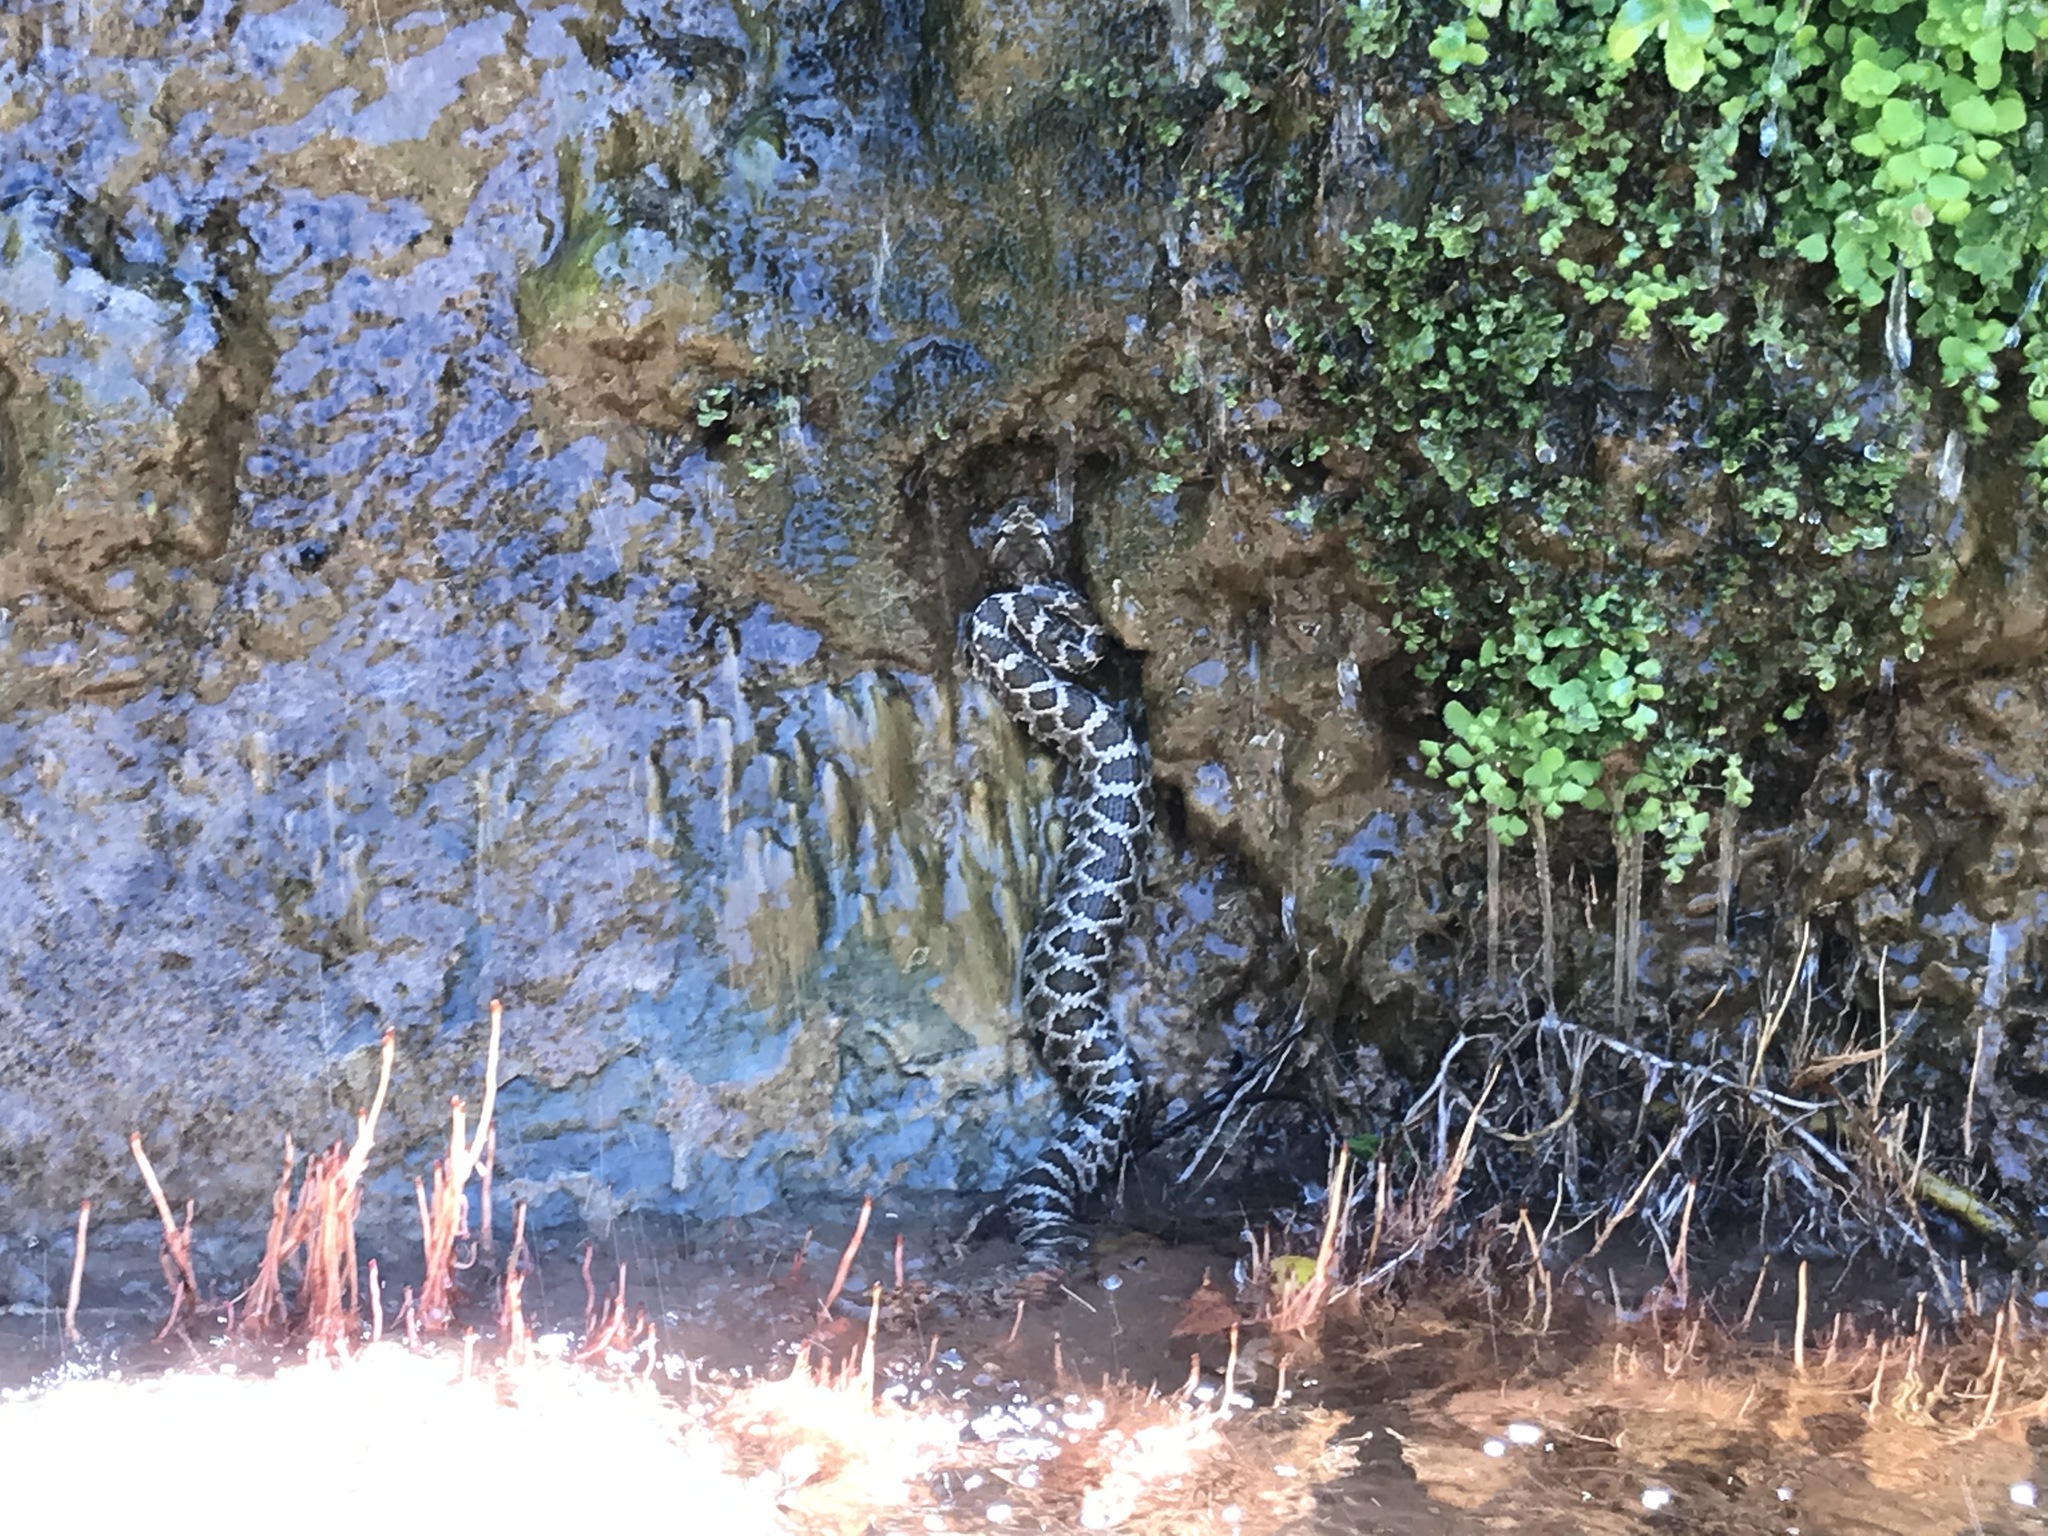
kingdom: Animalia
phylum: Chordata
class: Squamata
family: Viperidae
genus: Crotalus
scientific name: Crotalus oreganus
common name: Abyssus
